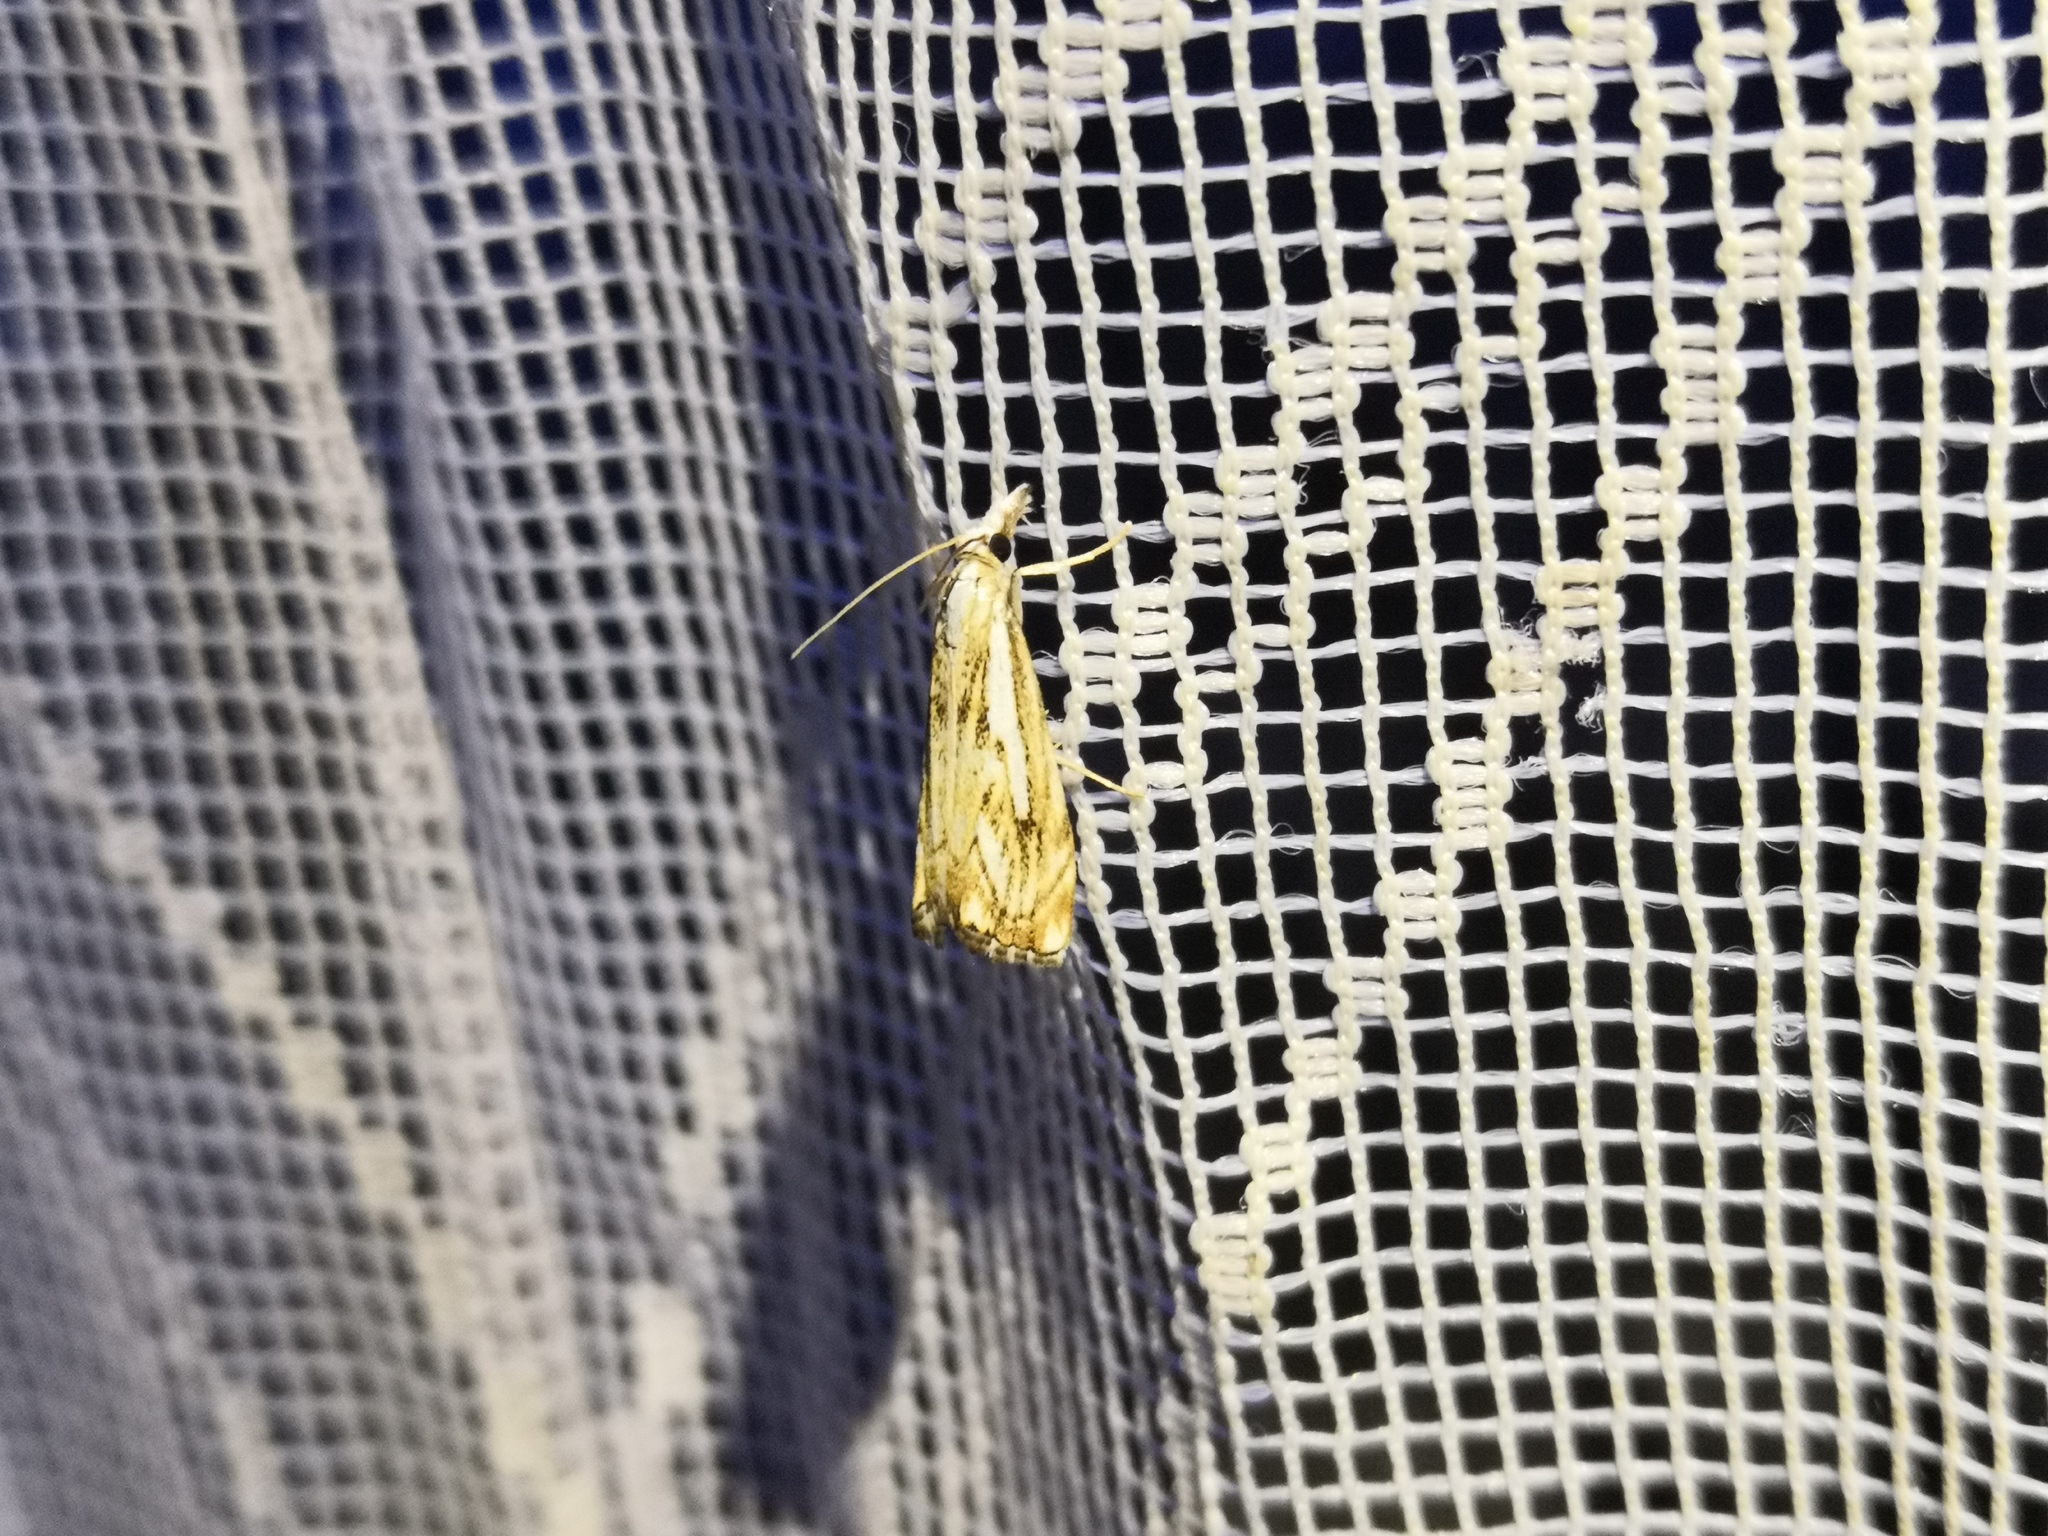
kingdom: Animalia
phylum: Arthropoda
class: Insecta
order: Lepidoptera
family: Crambidae
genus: Catoptria
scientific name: Catoptria falsella
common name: Chequered grass-veneer
